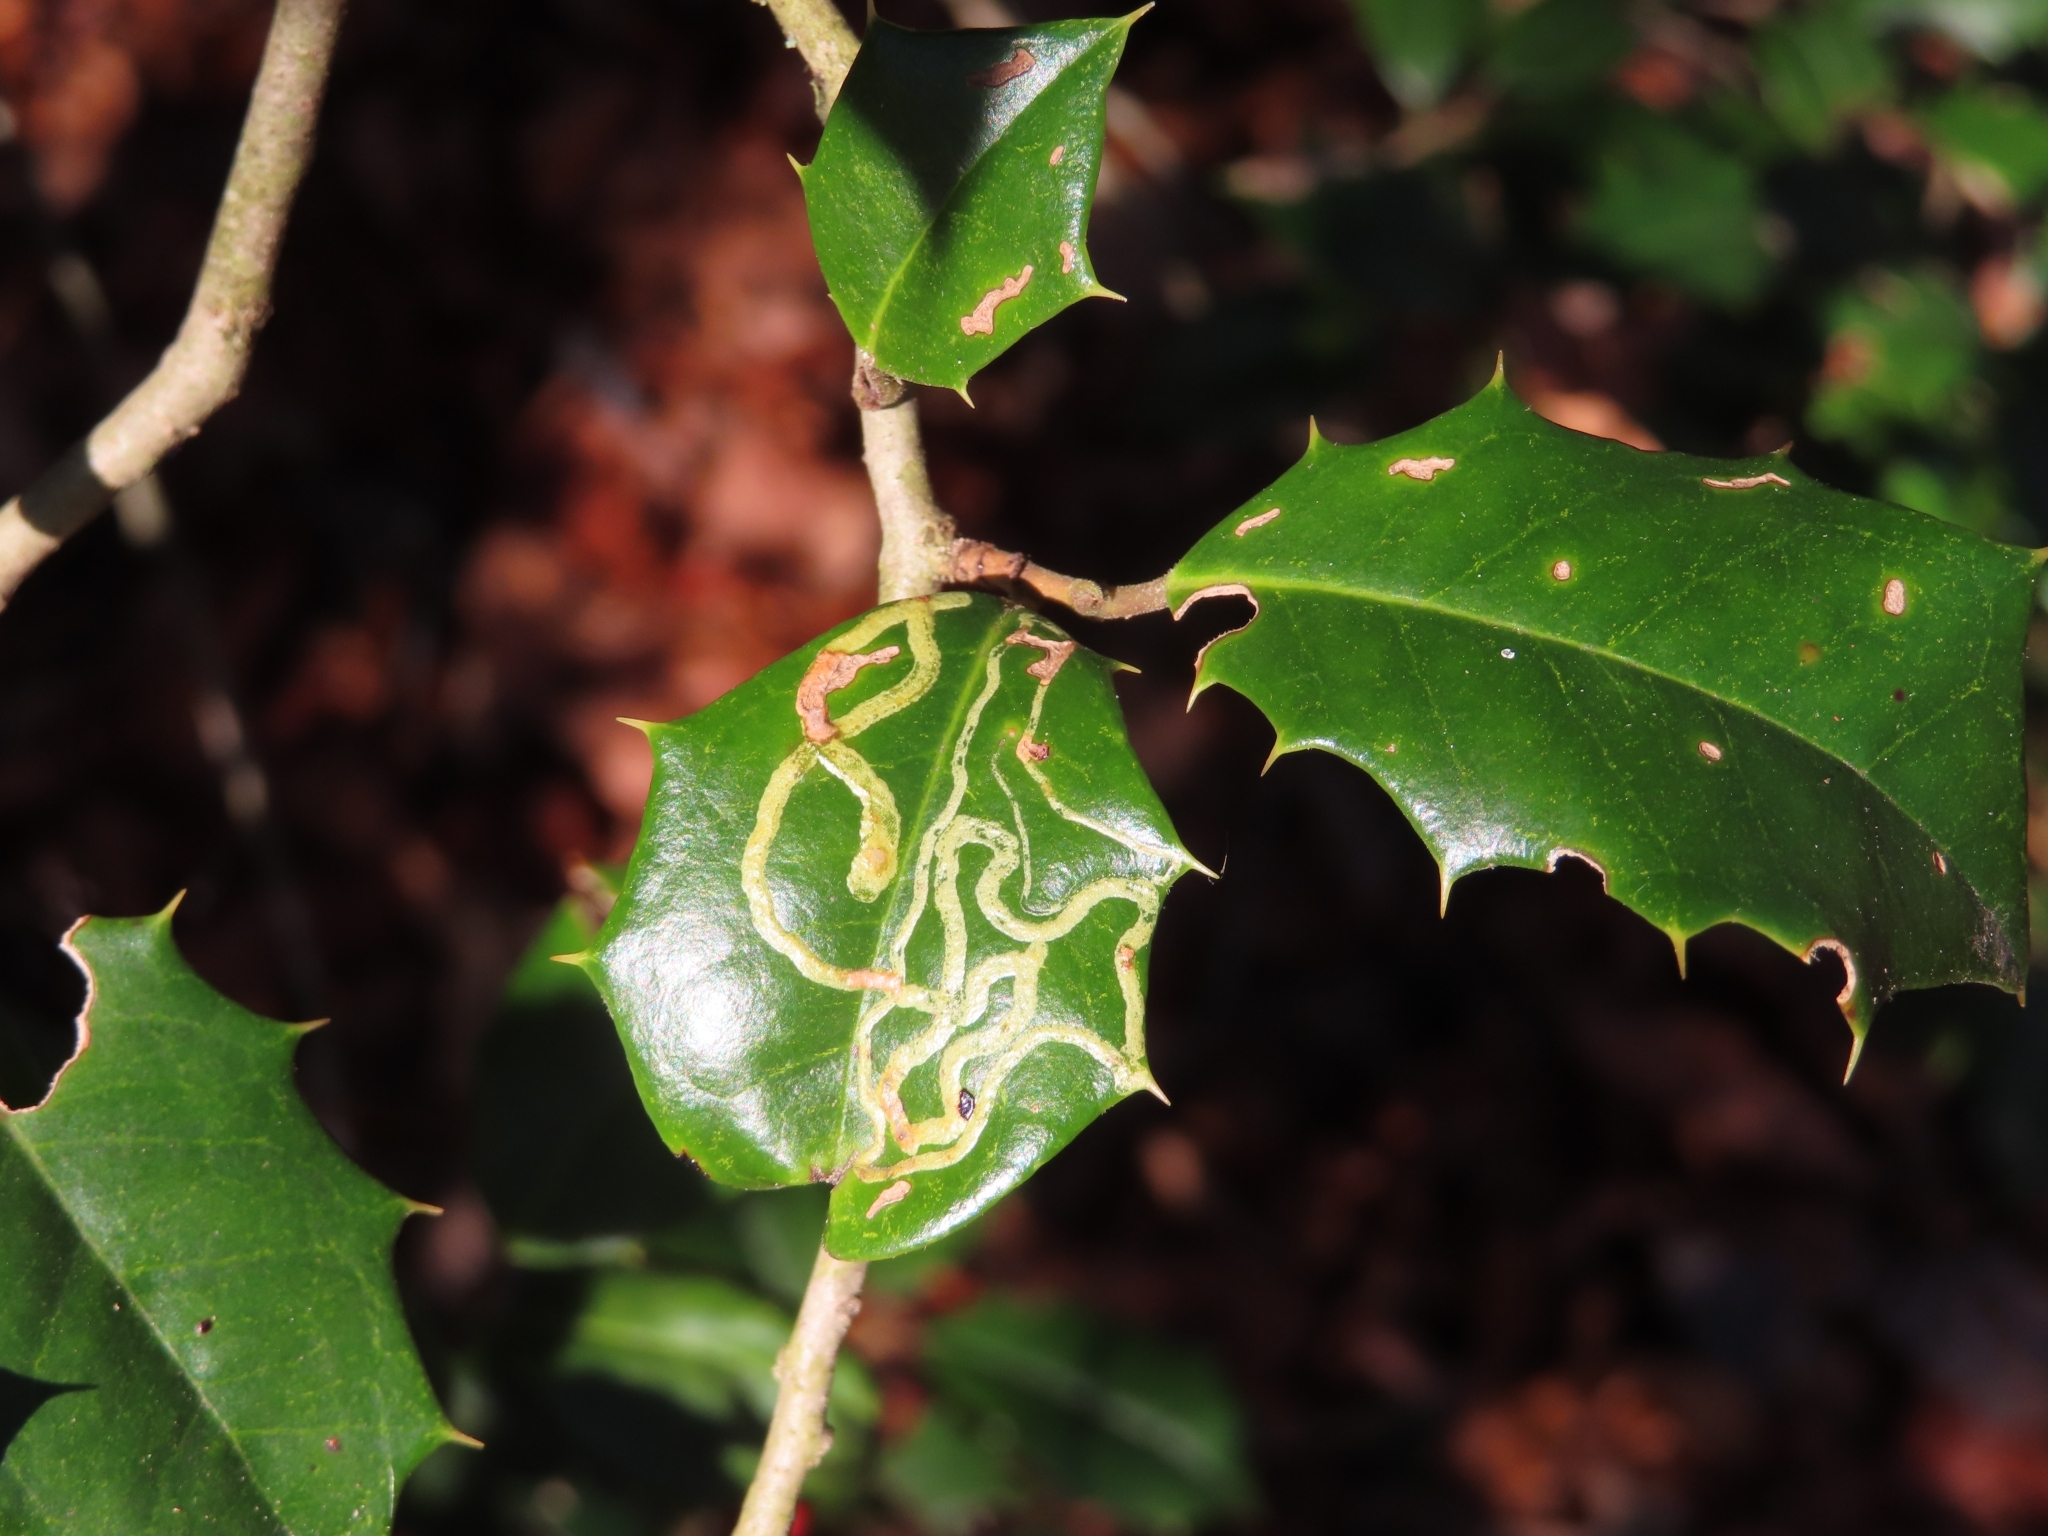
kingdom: Animalia
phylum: Arthropoda
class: Insecta
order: Diptera
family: Agromyzidae
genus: Phytomyza
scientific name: Phytomyza opacae
